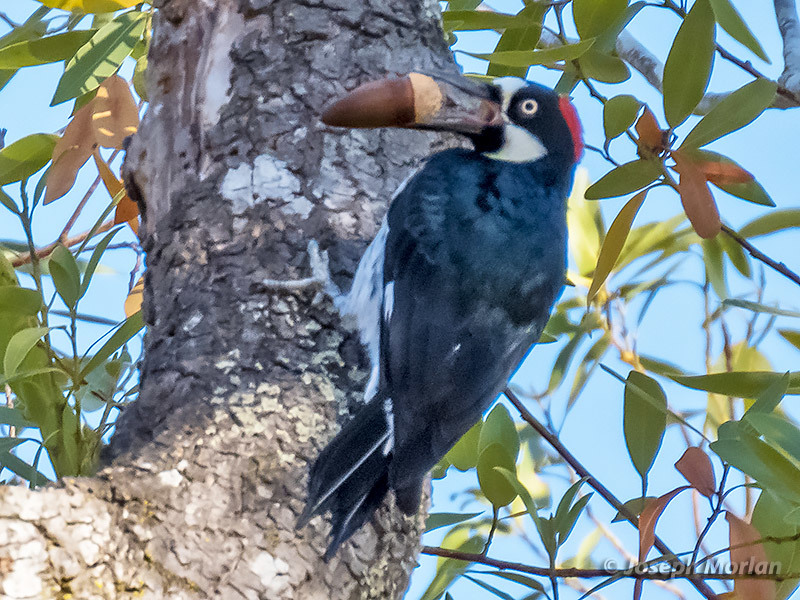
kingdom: Animalia
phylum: Chordata
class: Aves
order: Piciformes
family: Picidae
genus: Melanerpes
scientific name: Melanerpes formicivorus
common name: Acorn woodpecker
